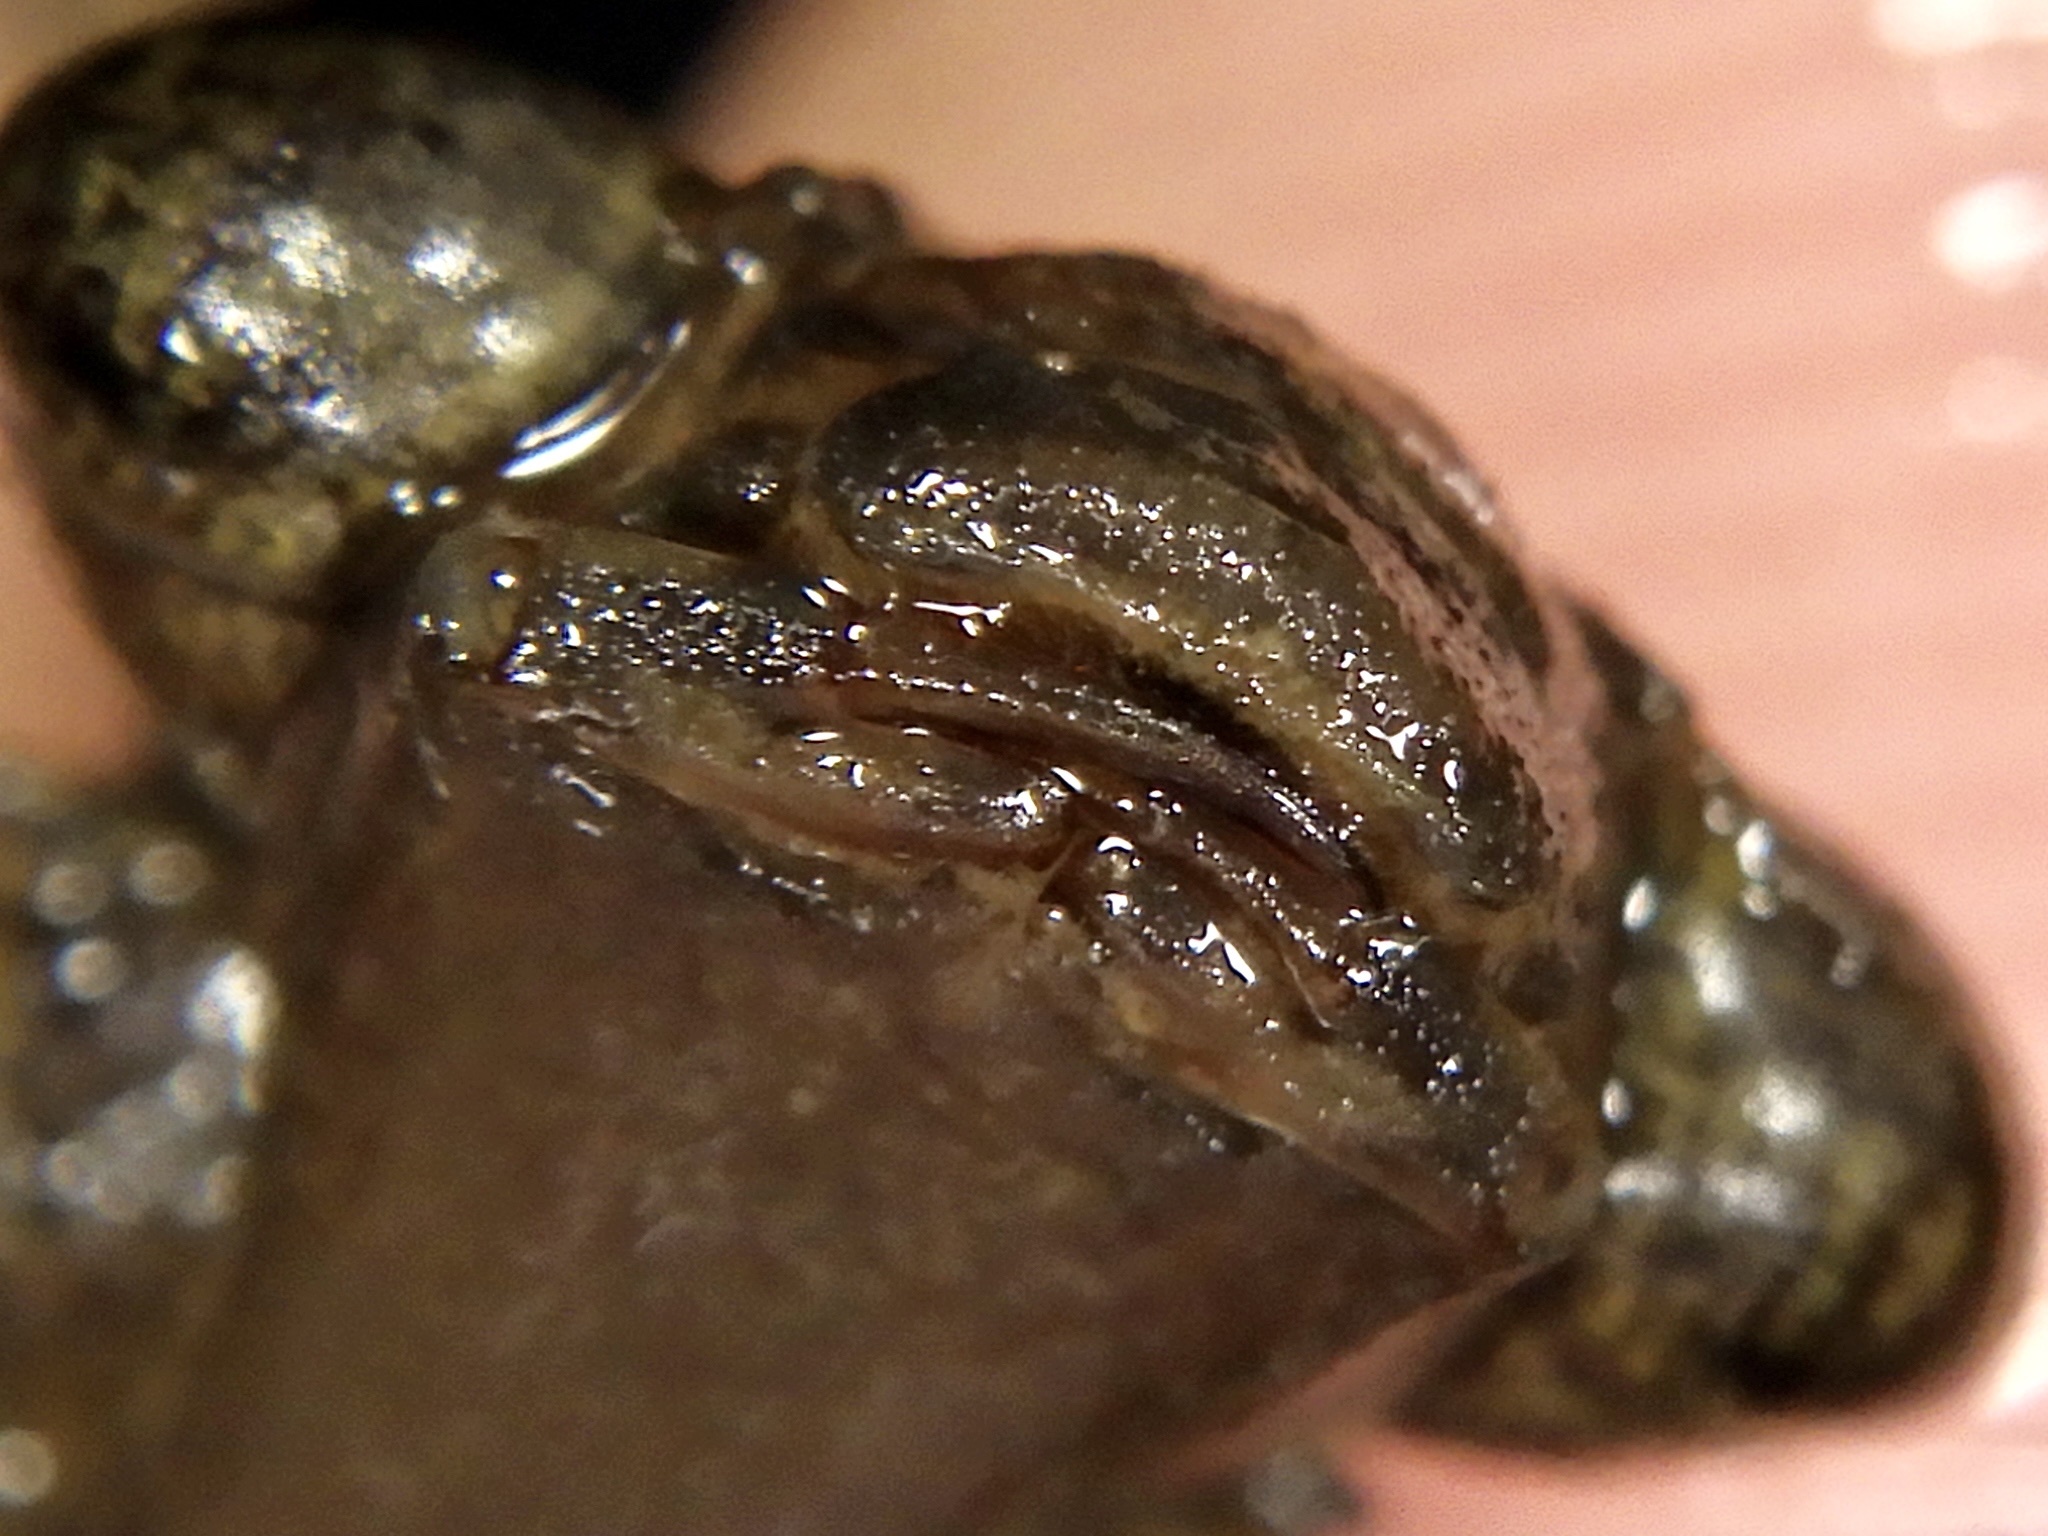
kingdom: Animalia
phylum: Arthropoda
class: Insecta
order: Odonata
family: Aeshnidae
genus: Aeschnophlebia
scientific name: Aeschnophlebia
